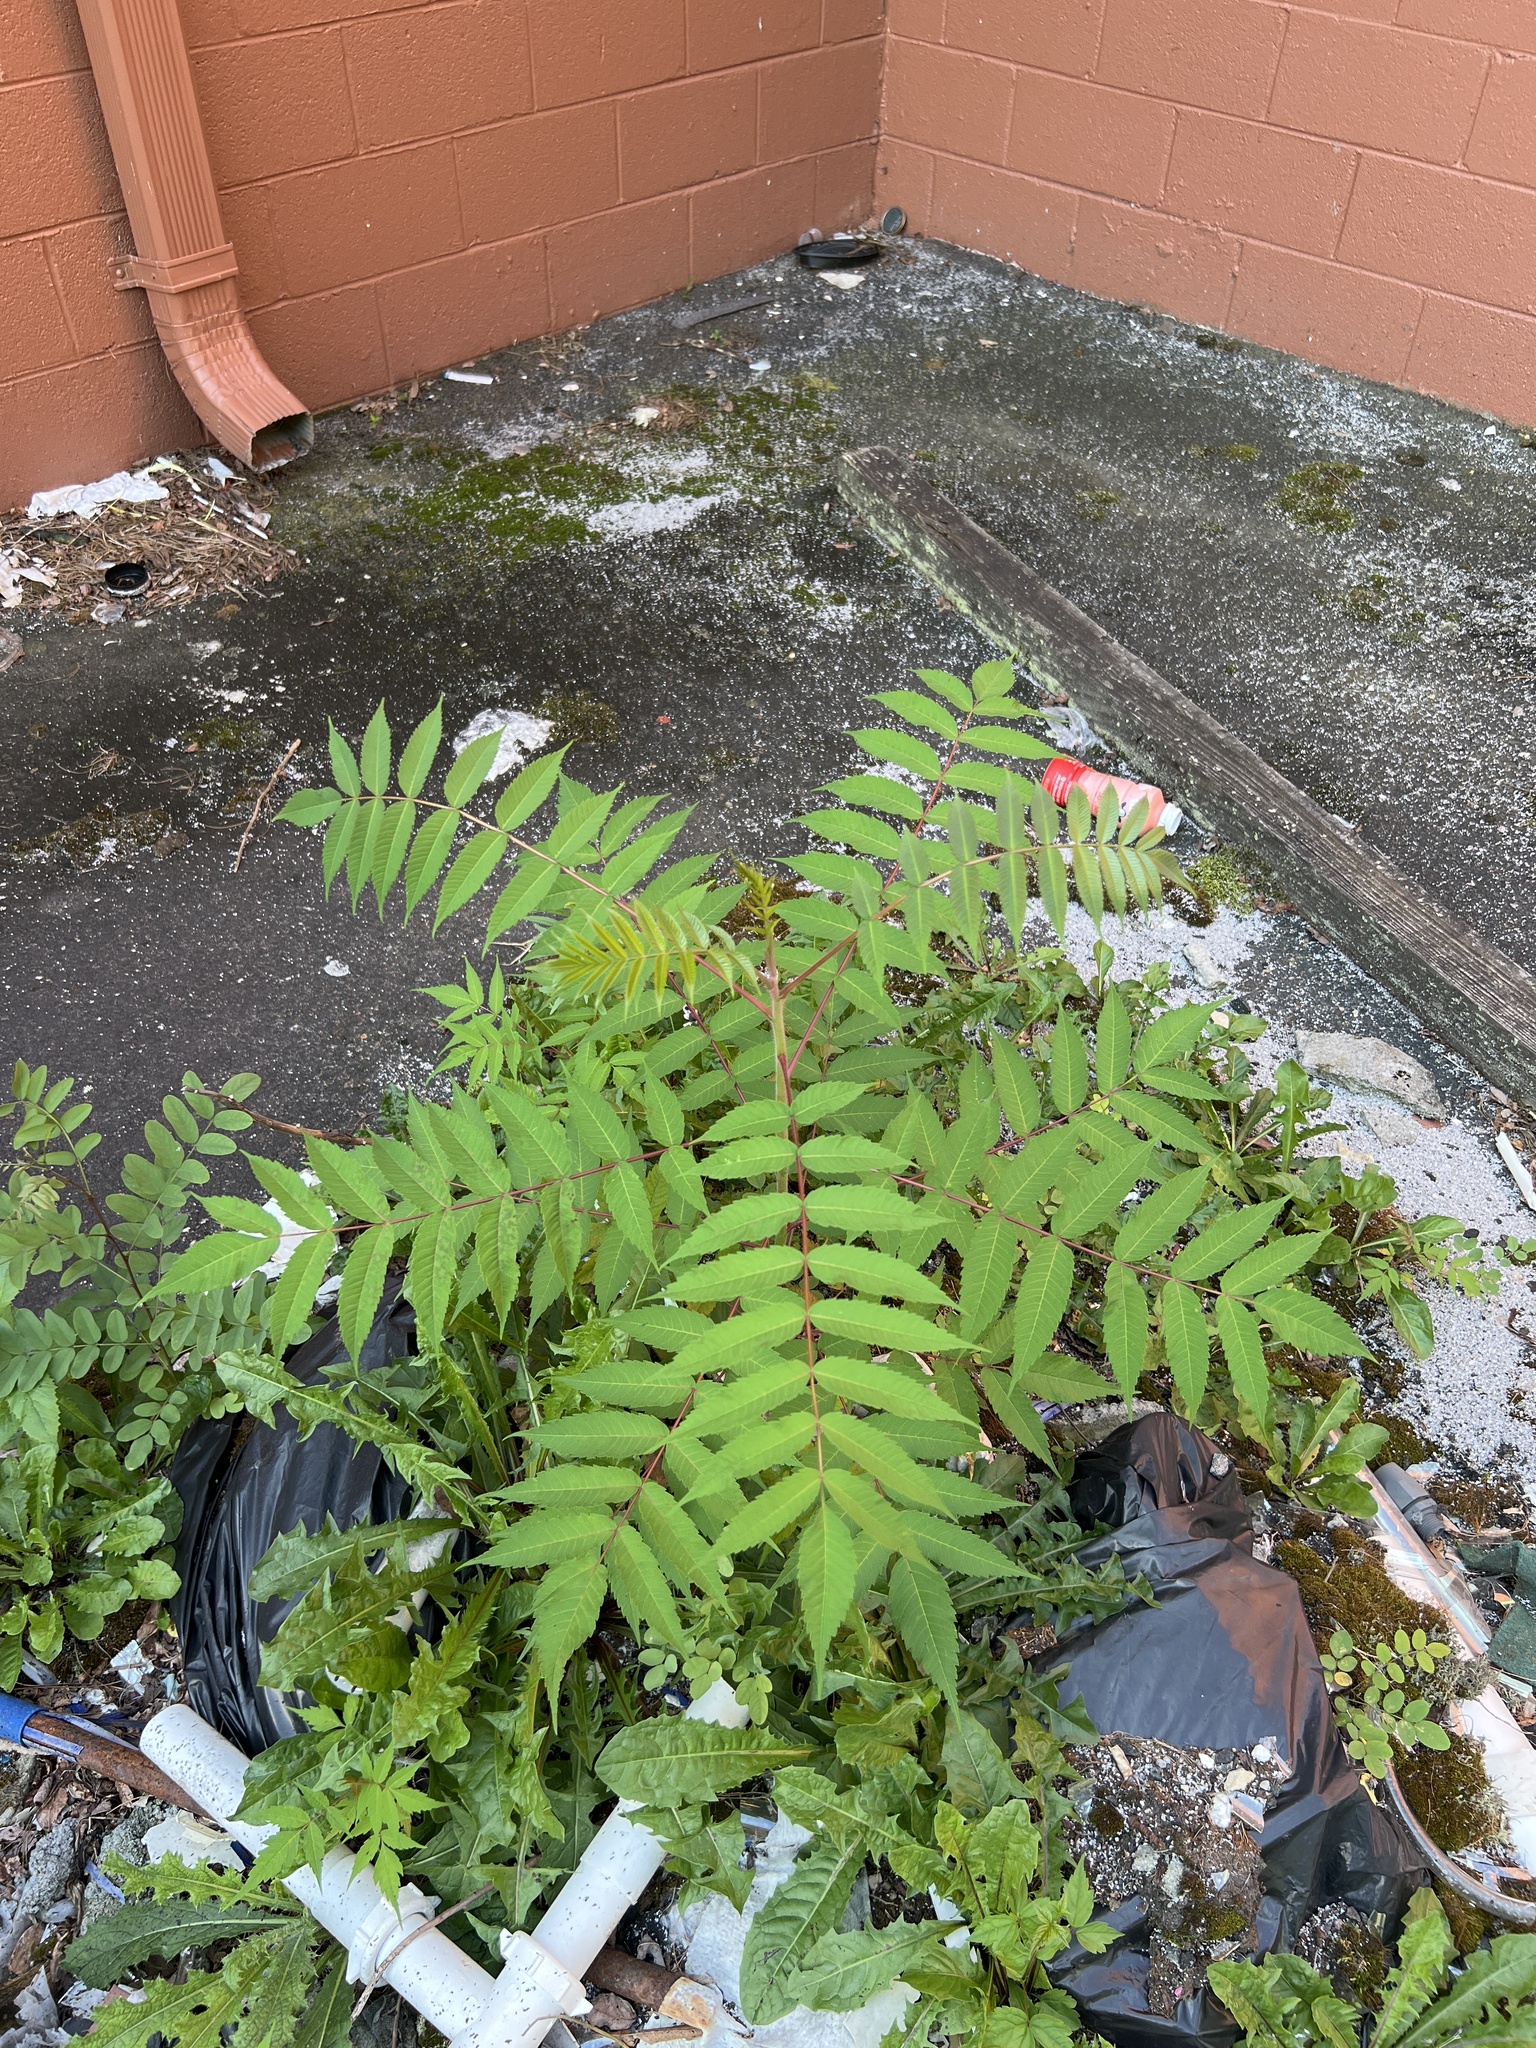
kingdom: Plantae
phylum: Tracheophyta
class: Magnoliopsida
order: Sapindales
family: Anacardiaceae
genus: Rhus
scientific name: Rhus glabra
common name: Scarlet sumac
